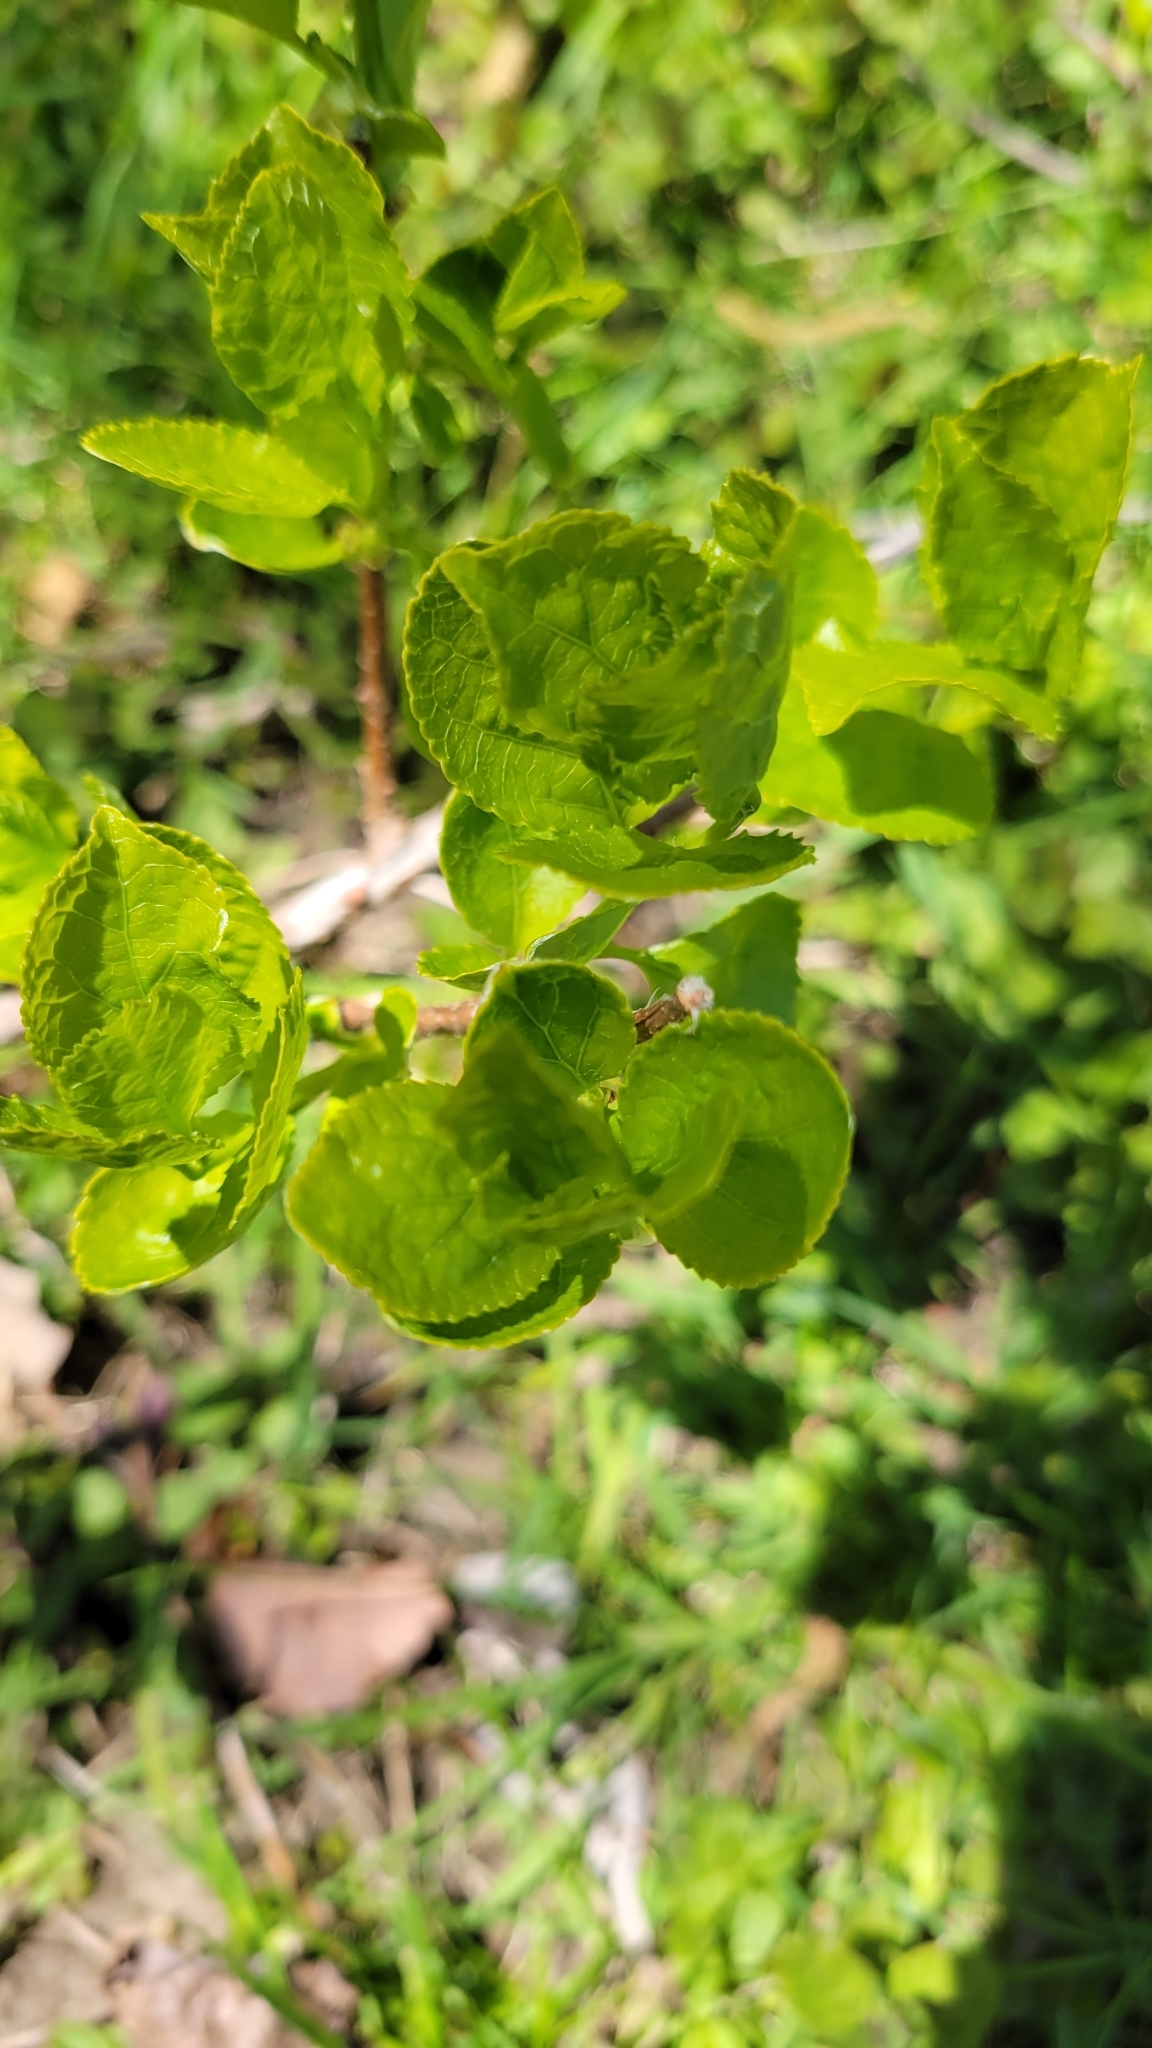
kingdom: Plantae
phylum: Tracheophyta
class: Magnoliopsida
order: Celastrales
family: Celastraceae
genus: Celastrus
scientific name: Celastrus orbiculatus
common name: Oriental bittersweet
